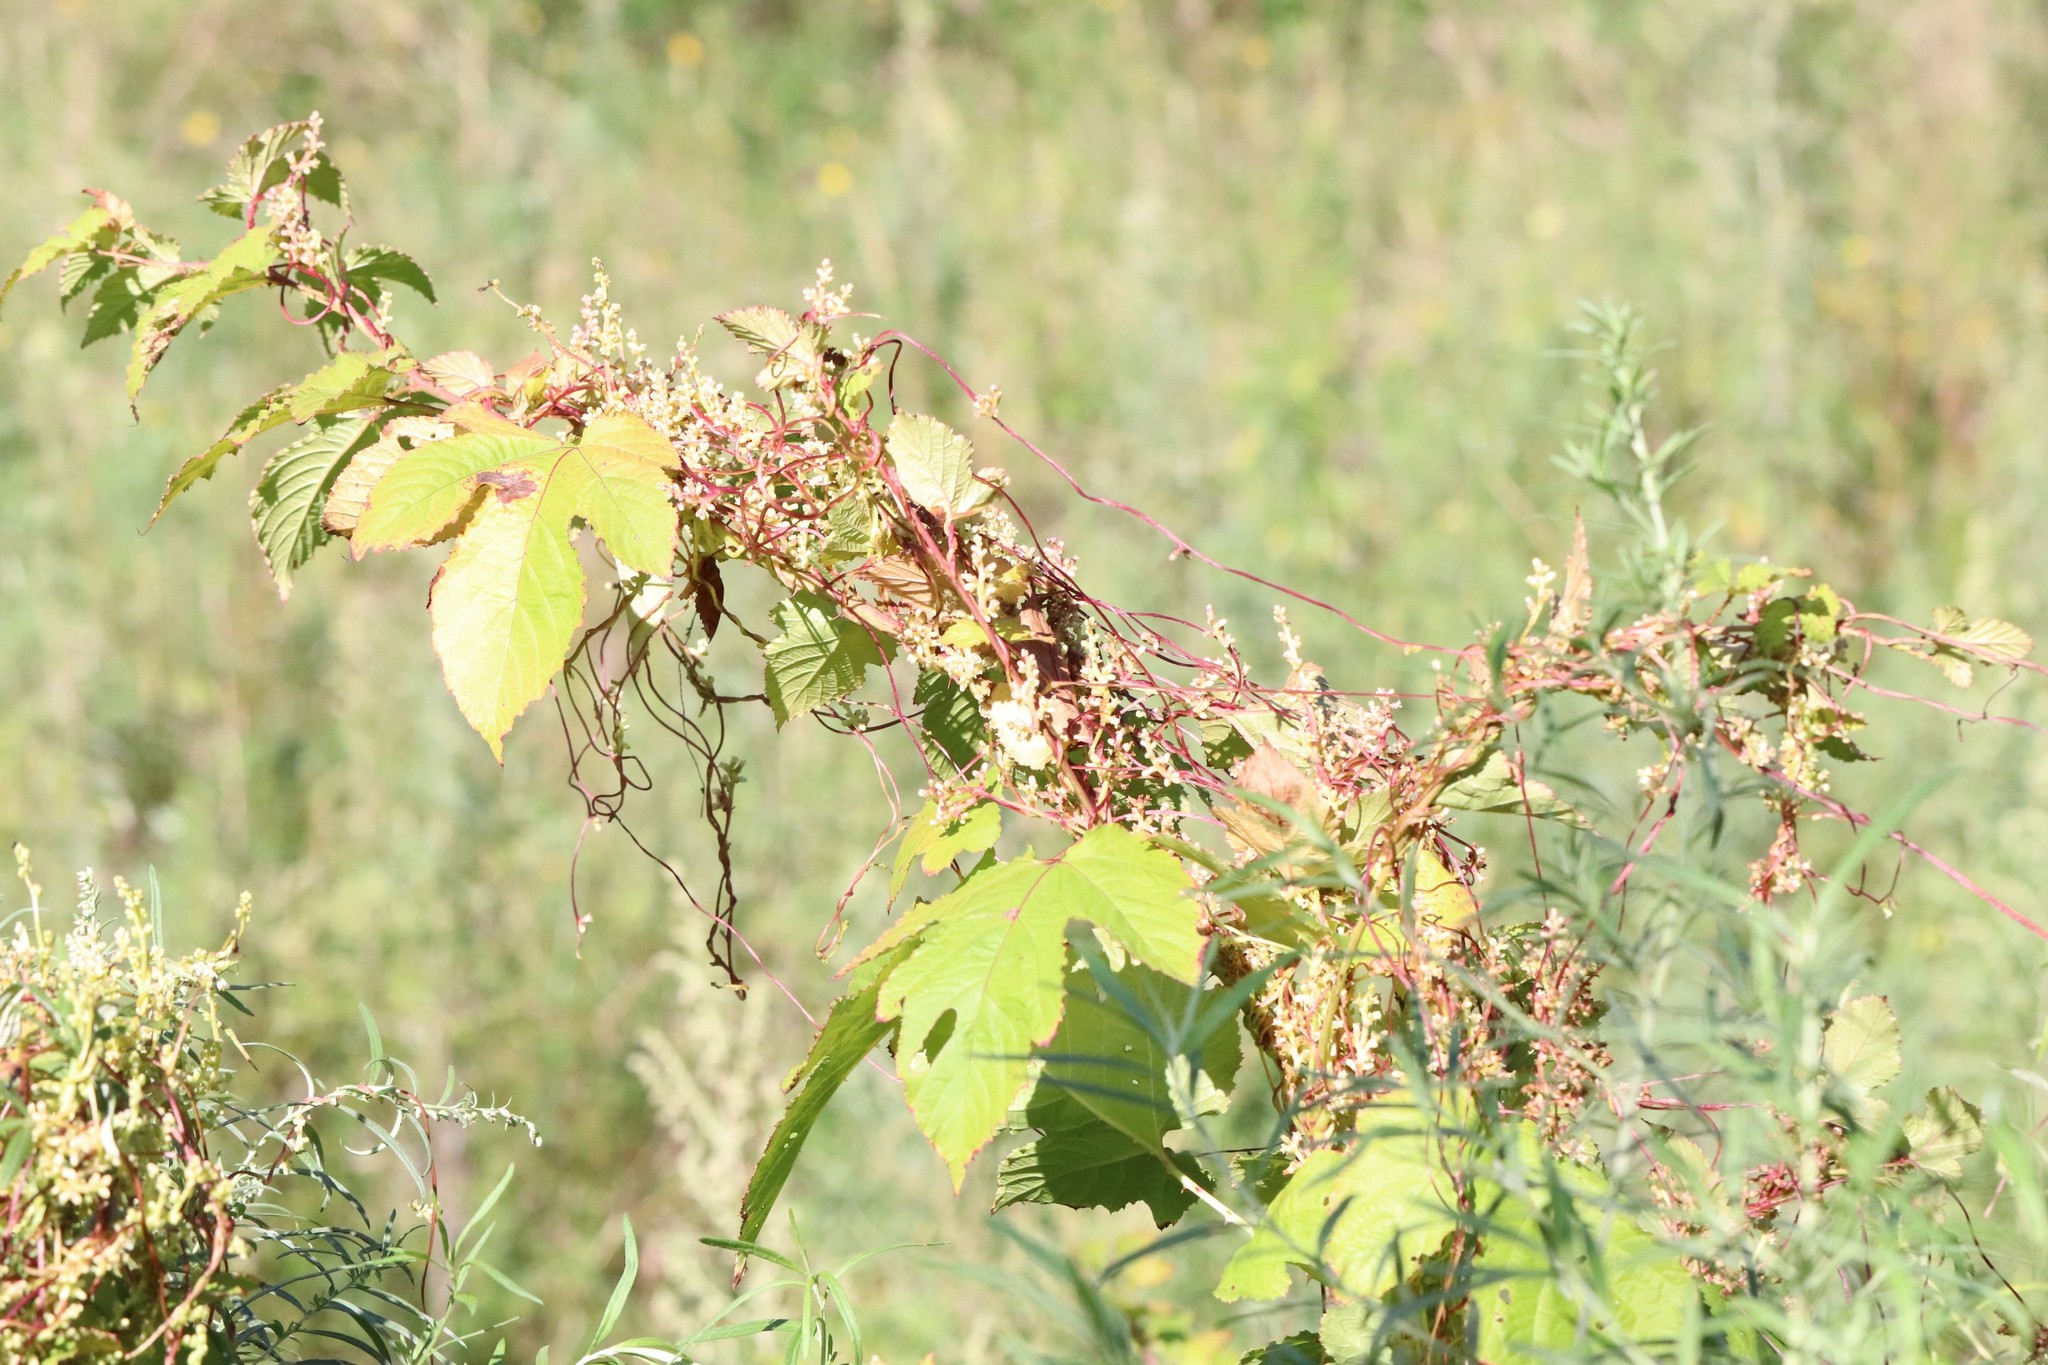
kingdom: Plantae
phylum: Tracheophyta
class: Magnoliopsida
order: Solanales
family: Convolvulaceae
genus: Cuscuta
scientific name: Cuscuta japonica
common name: Japanese dodder
